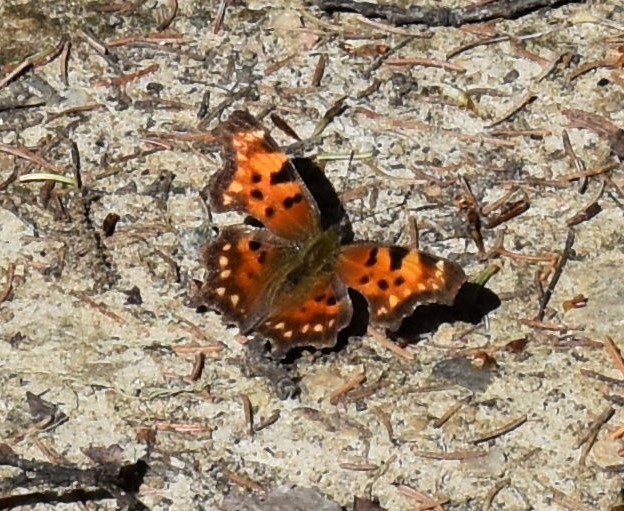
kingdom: Animalia
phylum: Arthropoda
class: Insecta
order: Lepidoptera
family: Nymphalidae
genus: Polygonia
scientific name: Polygonia faunus
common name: Green comma
